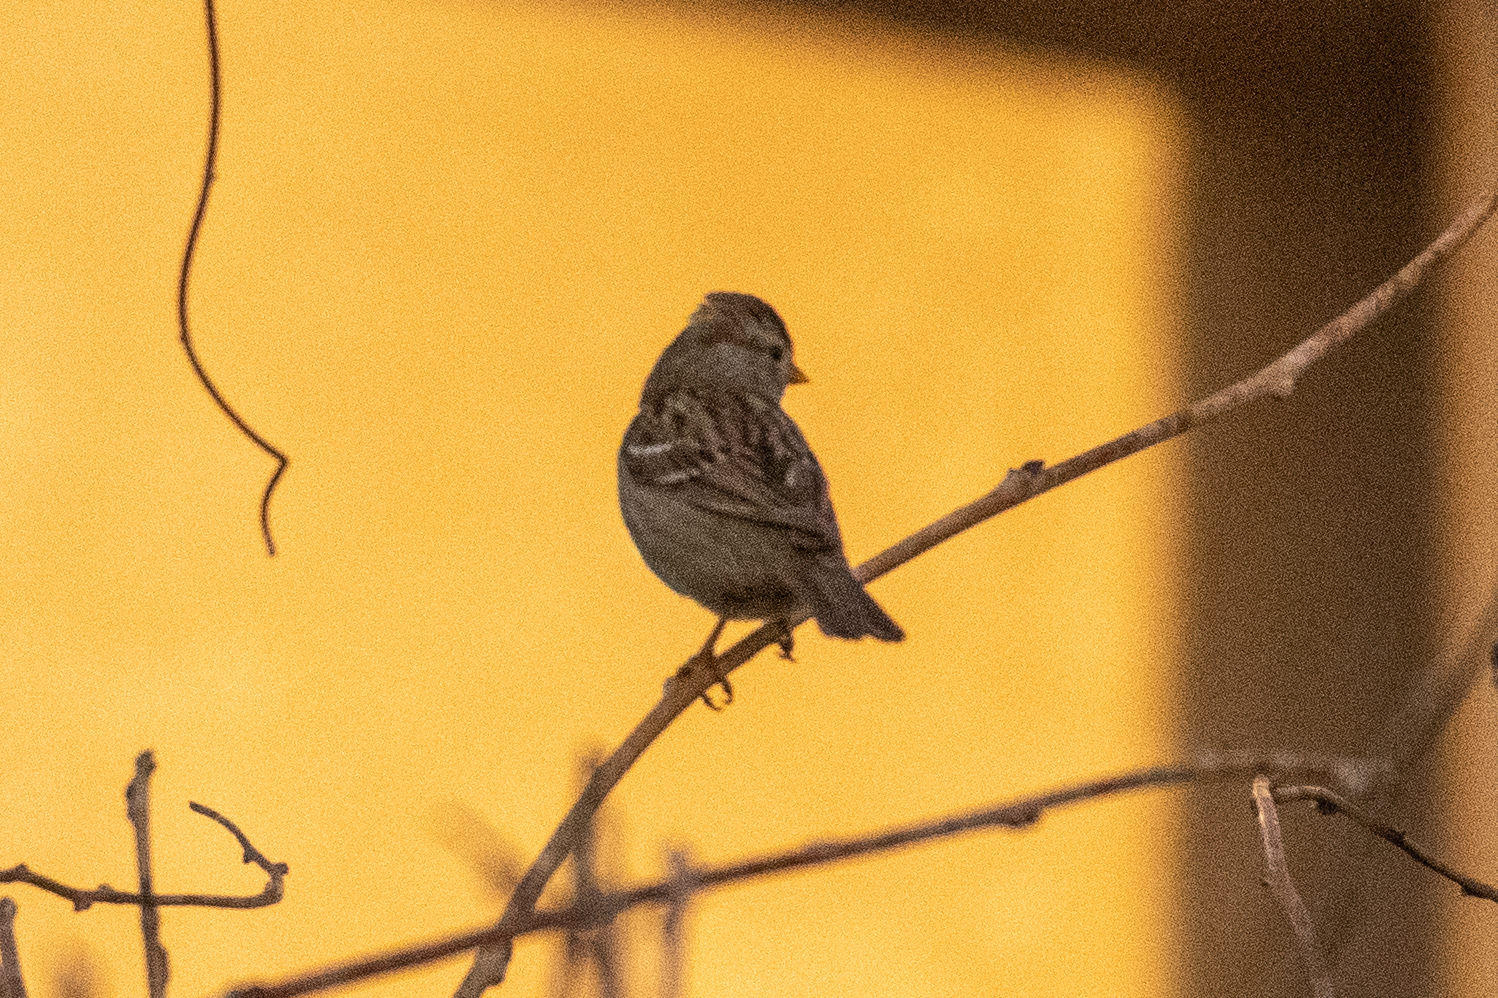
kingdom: Animalia
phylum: Chordata
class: Aves
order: Passeriformes
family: Passerellidae
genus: Zonotrichia
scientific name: Zonotrichia leucophrys
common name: White-crowned sparrow
